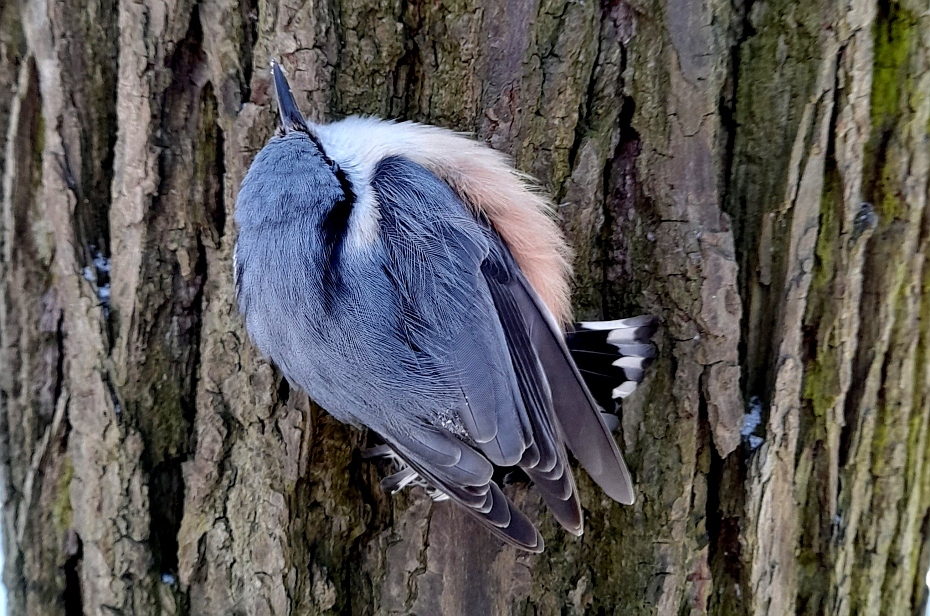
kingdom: Animalia
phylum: Chordata
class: Aves
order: Passeriformes
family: Sittidae
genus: Sitta
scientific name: Sitta europaea
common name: Eurasian nuthatch
